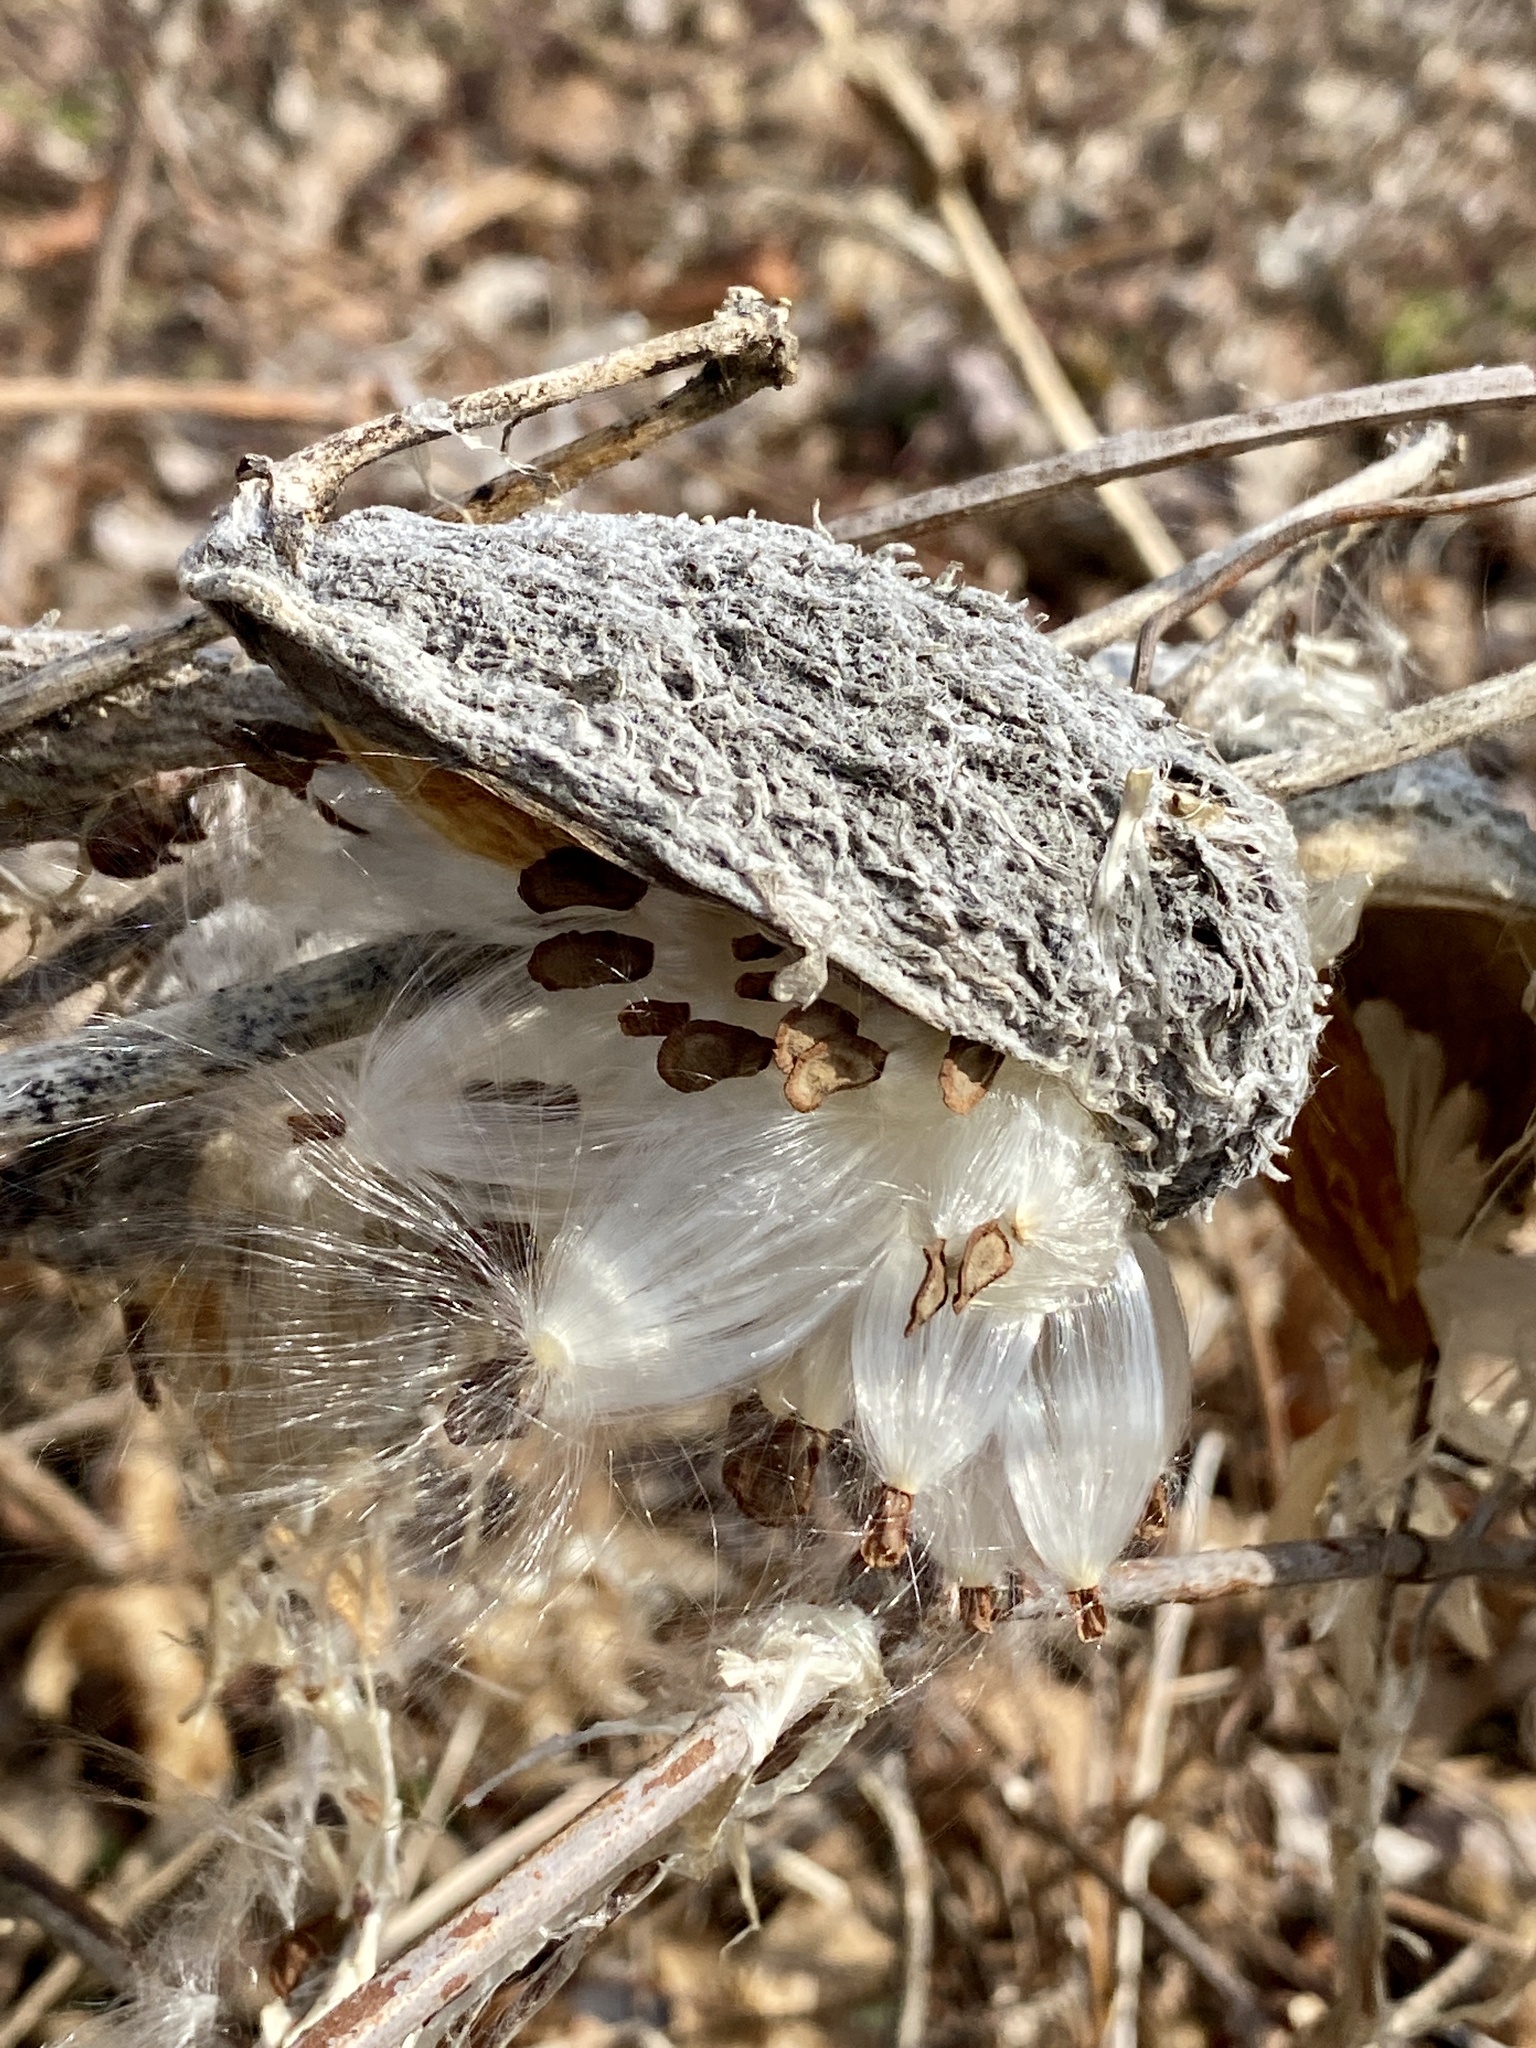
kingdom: Plantae
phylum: Tracheophyta
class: Magnoliopsida
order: Gentianales
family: Apocynaceae
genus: Asclepias
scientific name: Asclepias syriaca
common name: Common milkweed
